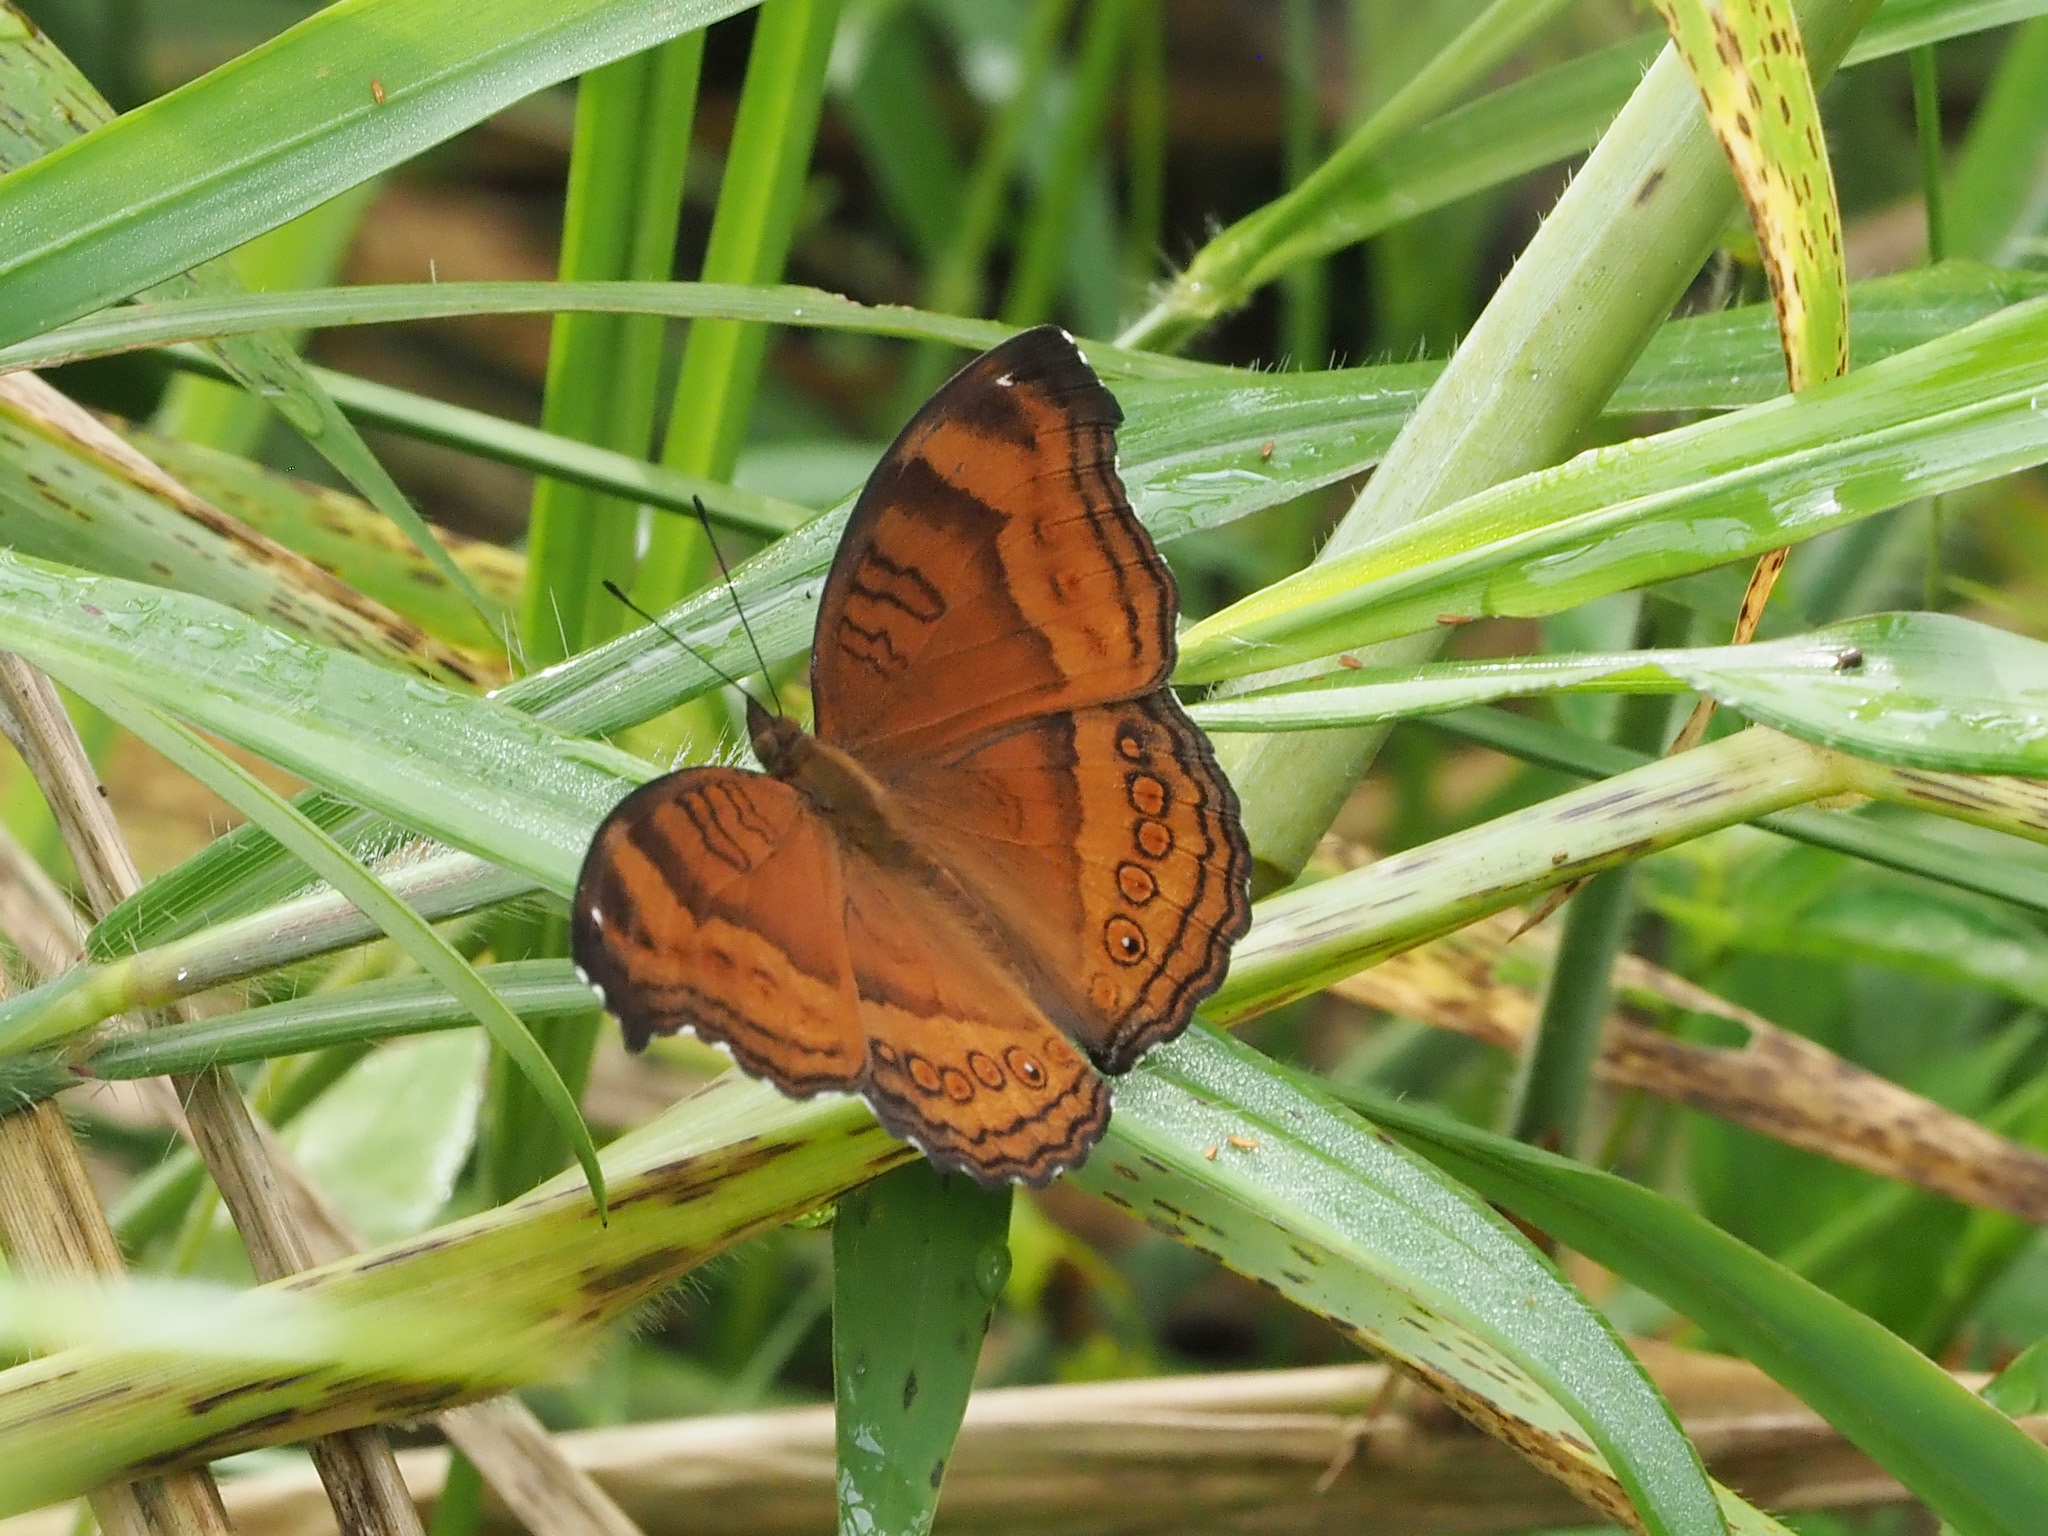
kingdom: Animalia
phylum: Arthropoda
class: Insecta
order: Lepidoptera
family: Nymphalidae
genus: Junonia
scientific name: Junonia hedonia
